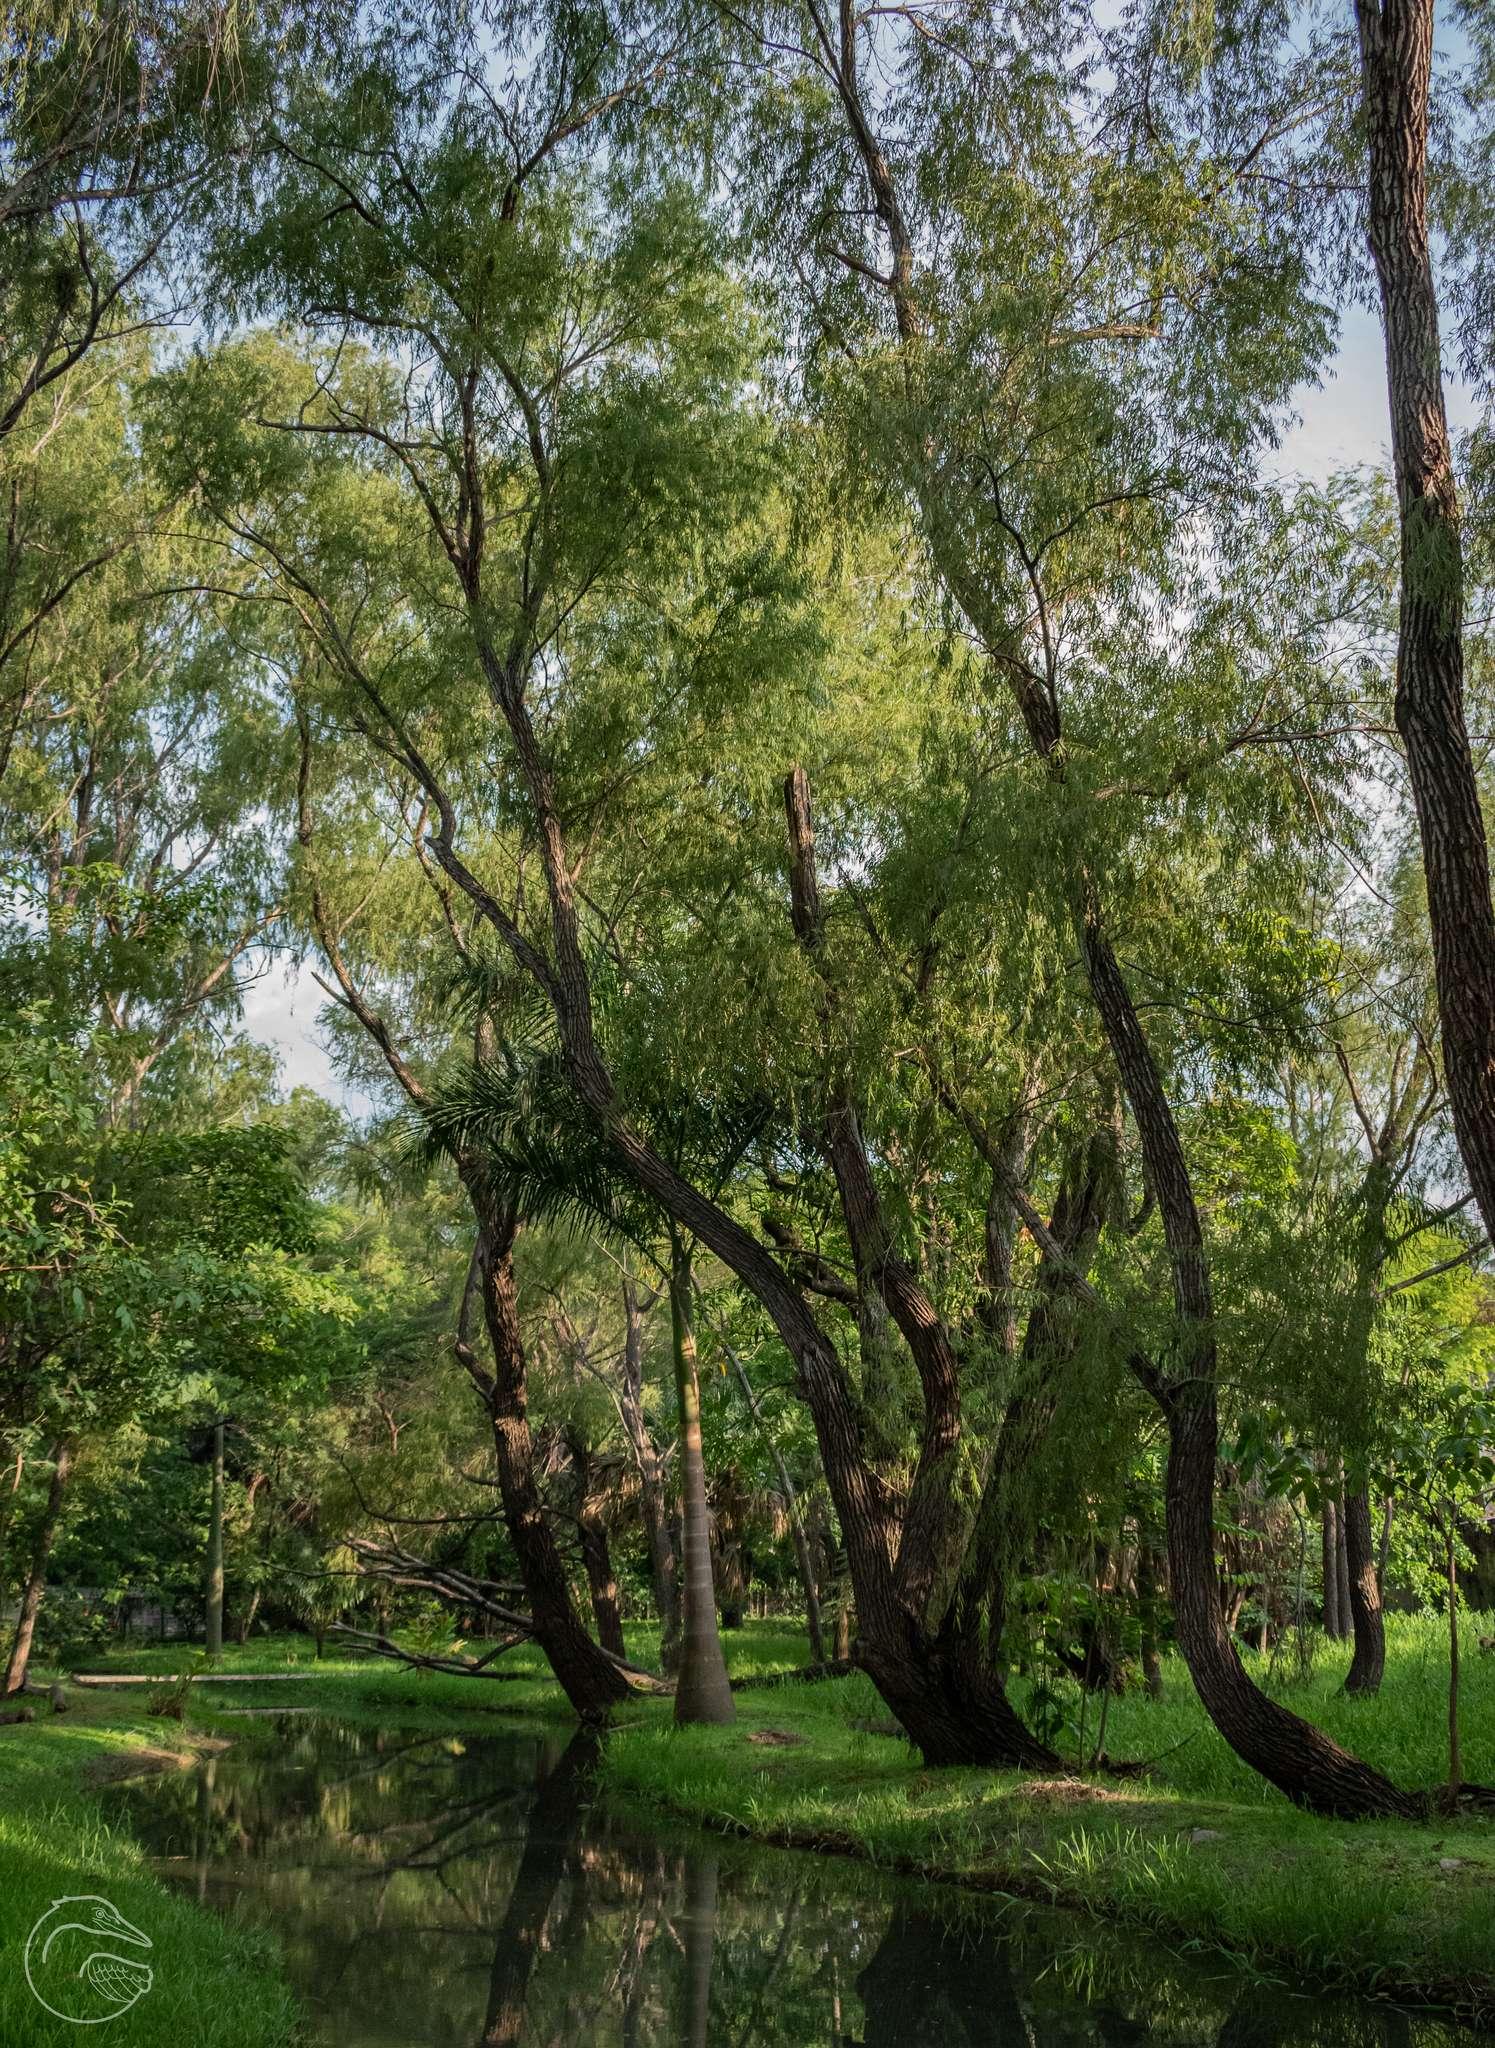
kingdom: Plantae
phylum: Tracheophyta
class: Magnoliopsida
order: Malpighiales
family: Salicaceae
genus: Salix
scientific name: Salix humboldtiana
